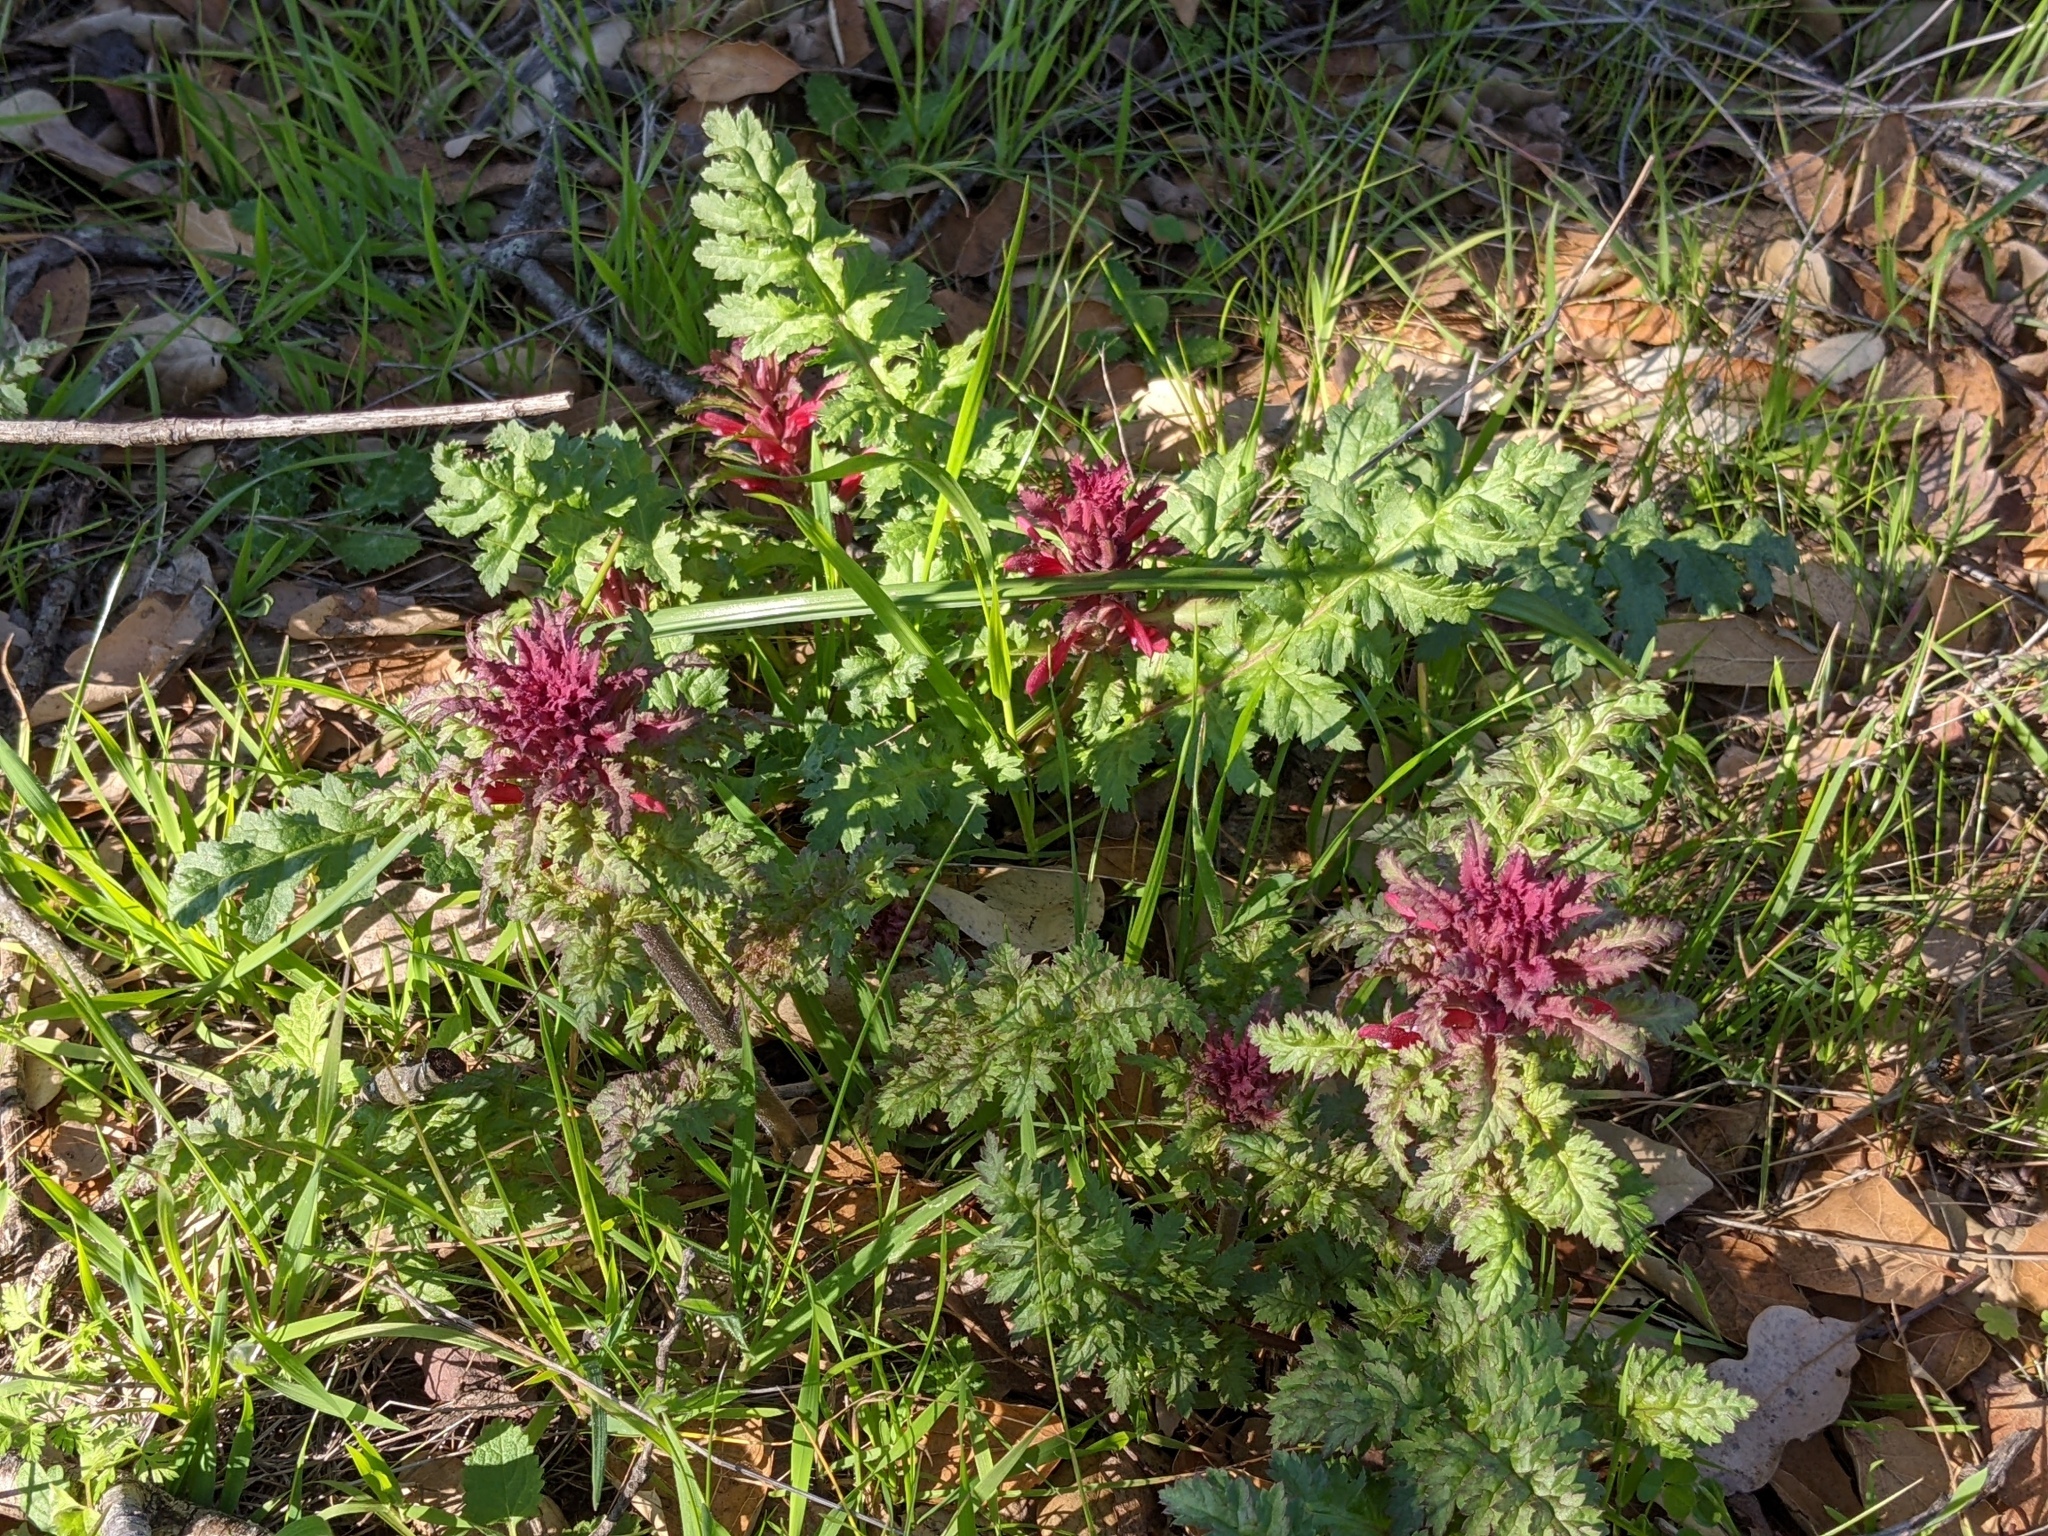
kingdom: Plantae
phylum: Tracheophyta
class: Magnoliopsida
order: Lamiales
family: Orobanchaceae
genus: Pedicularis
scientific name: Pedicularis densiflora
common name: Indian warrior
